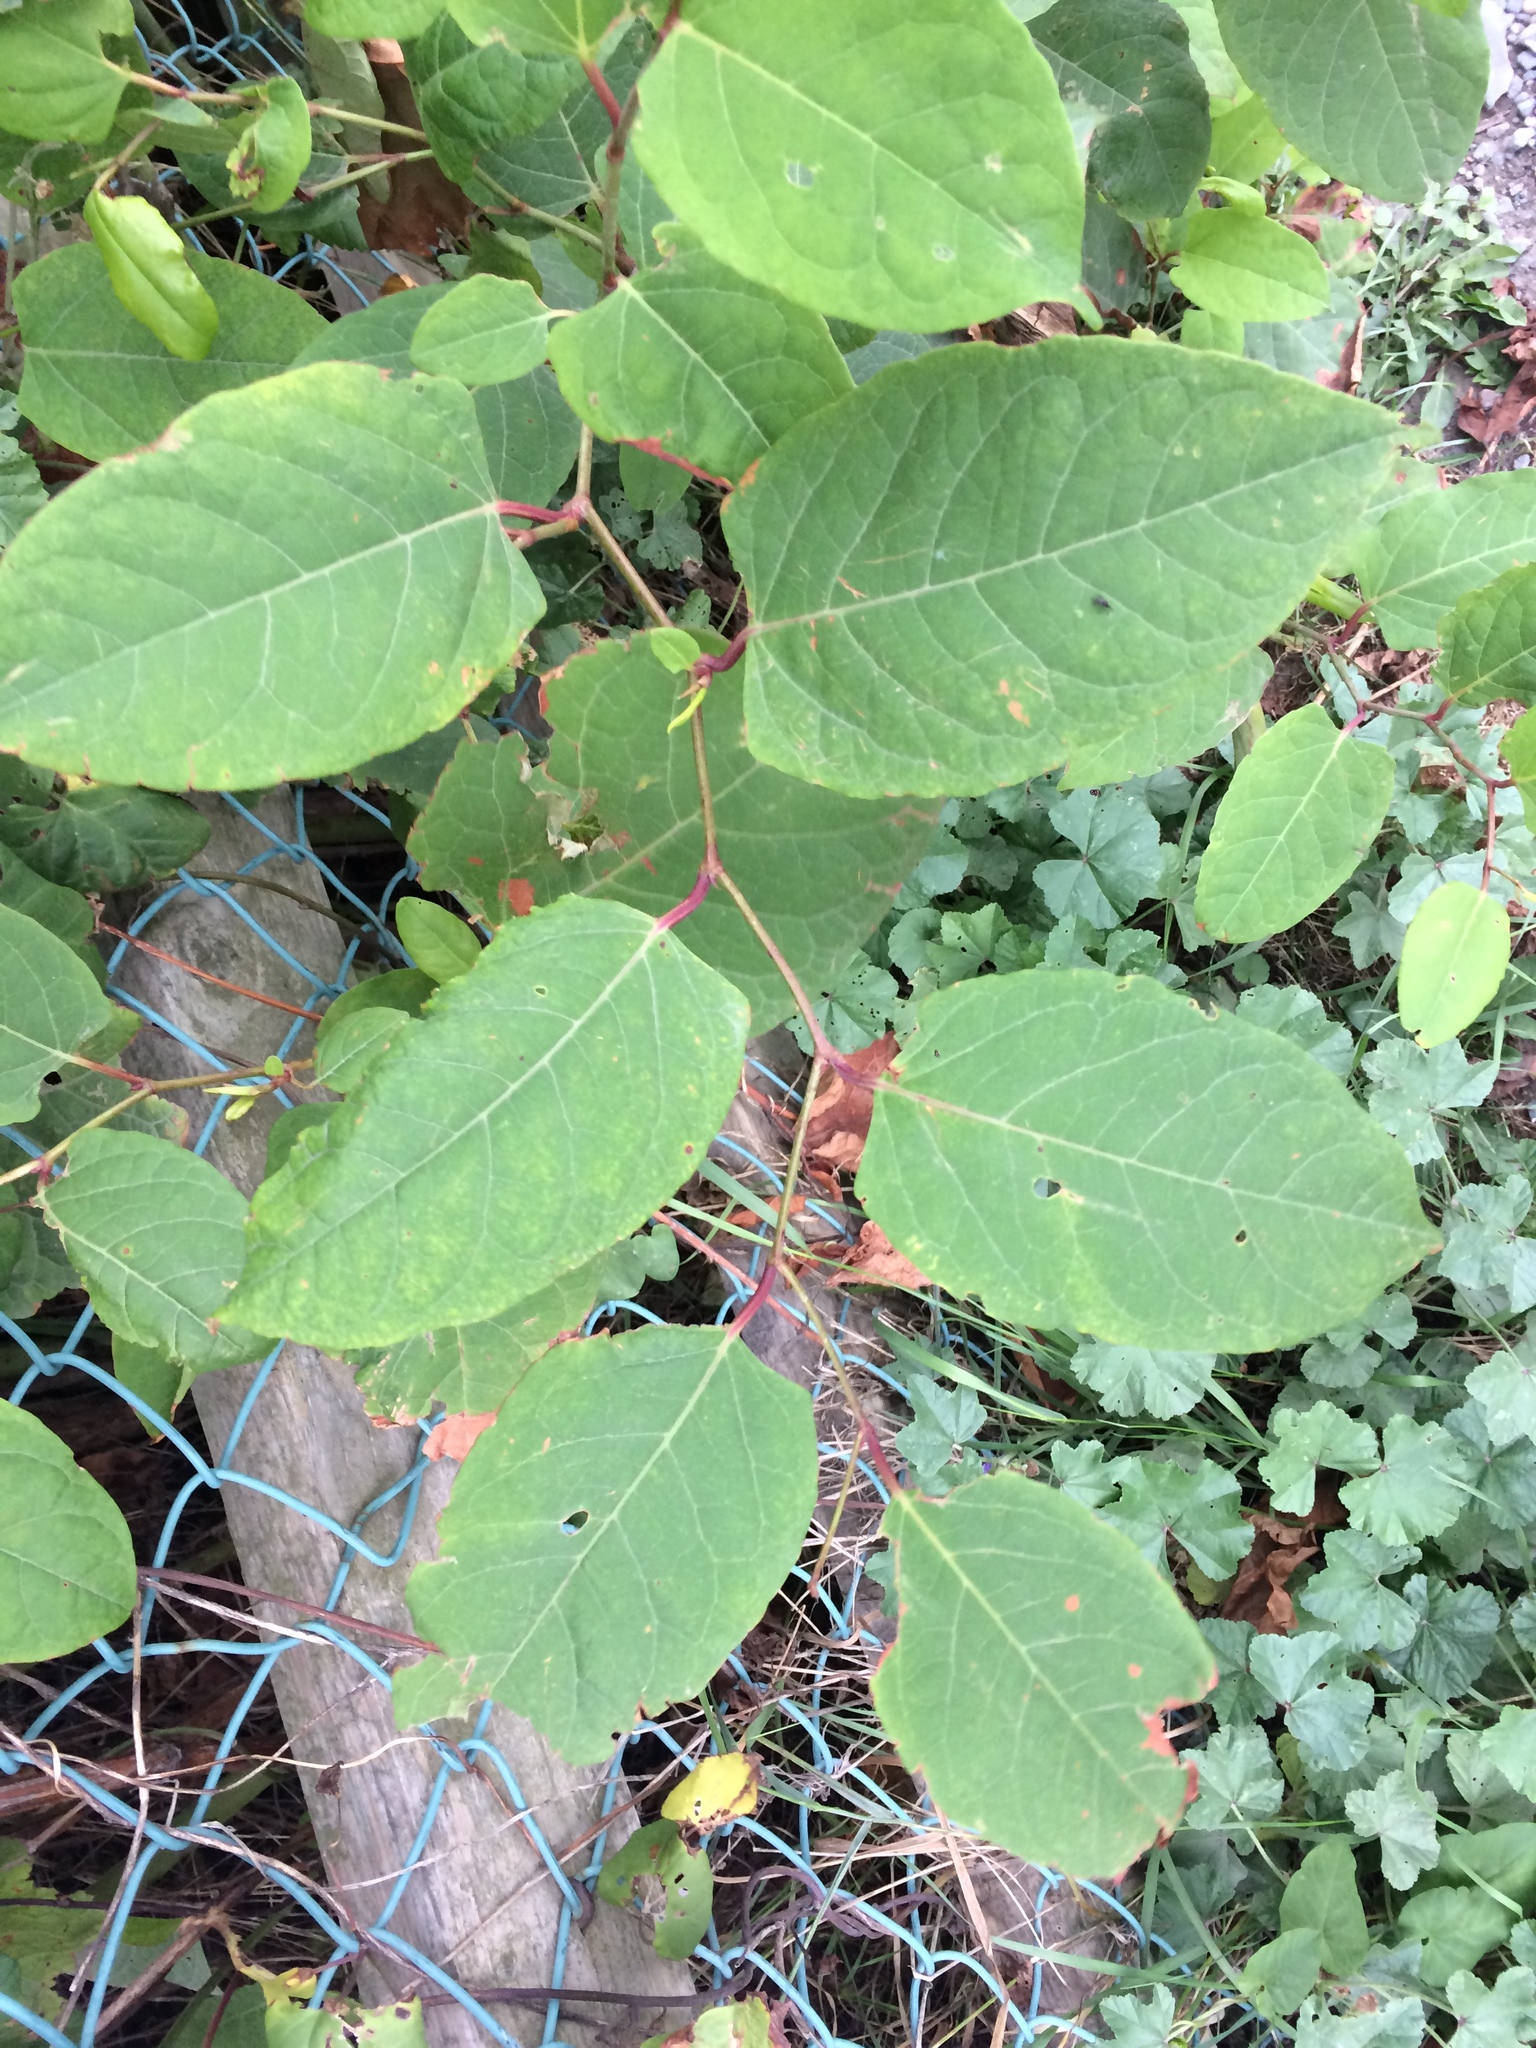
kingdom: Plantae
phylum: Tracheophyta
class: Magnoliopsida
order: Caryophyllales
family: Polygonaceae
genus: Reynoutria
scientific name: Reynoutria japonica
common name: Japanese knotweed
